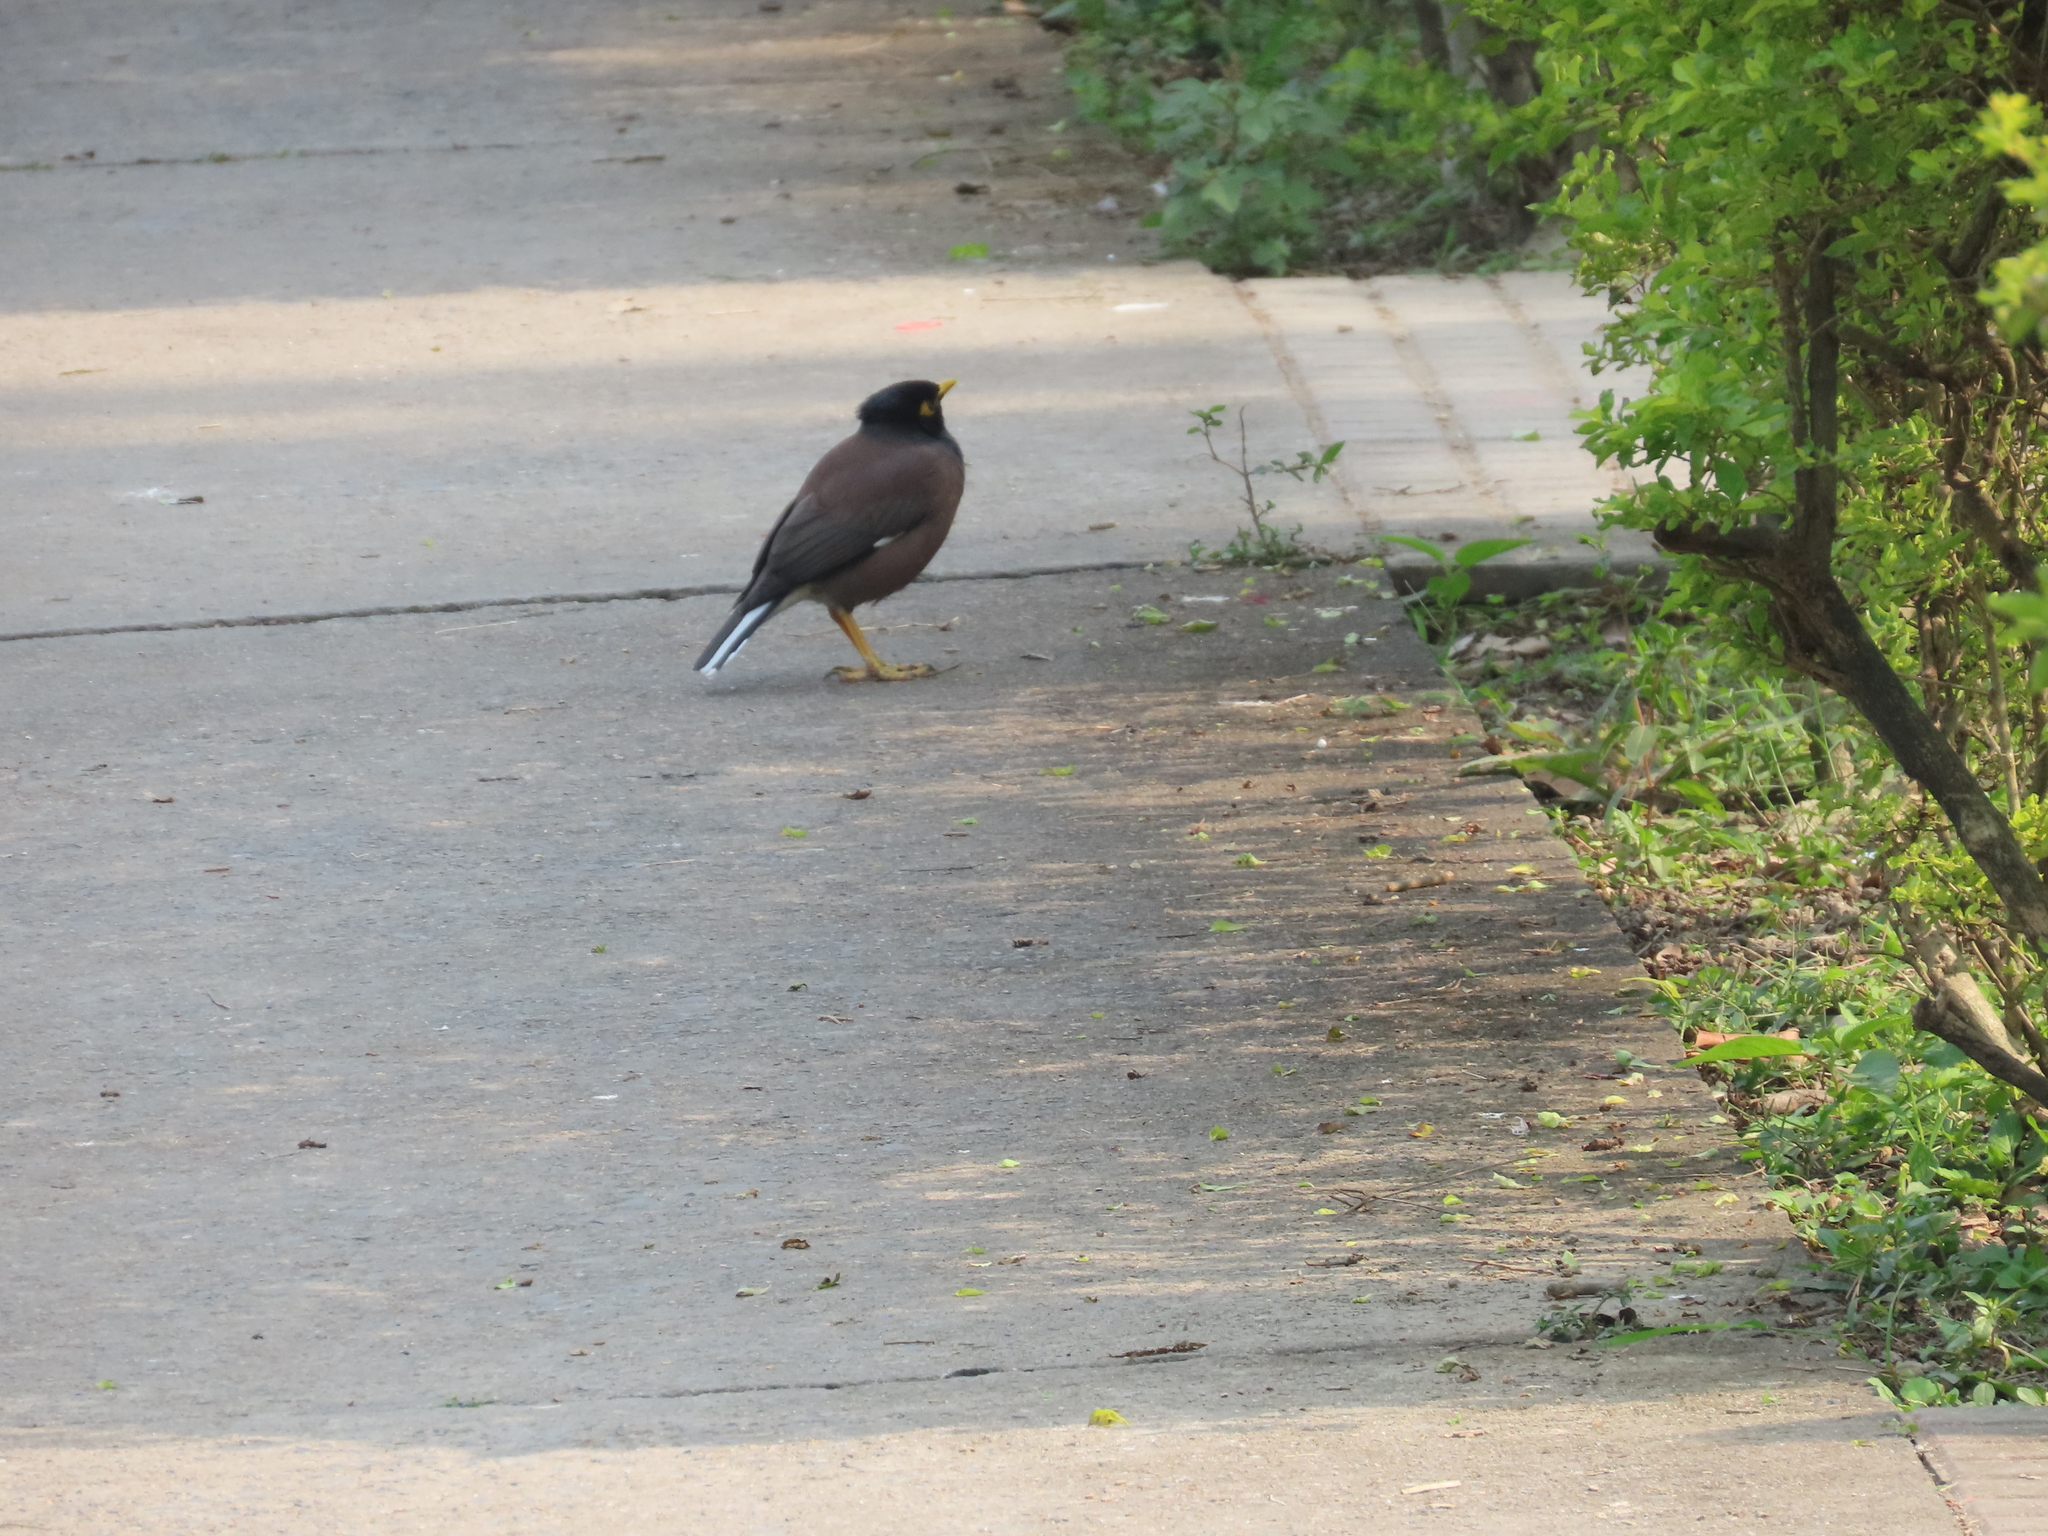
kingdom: Animalia
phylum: Chordata
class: Aves
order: Passeriformes
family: Sturnidae
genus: Acridotheres
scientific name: Acridotheres tristis
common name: Common myna
